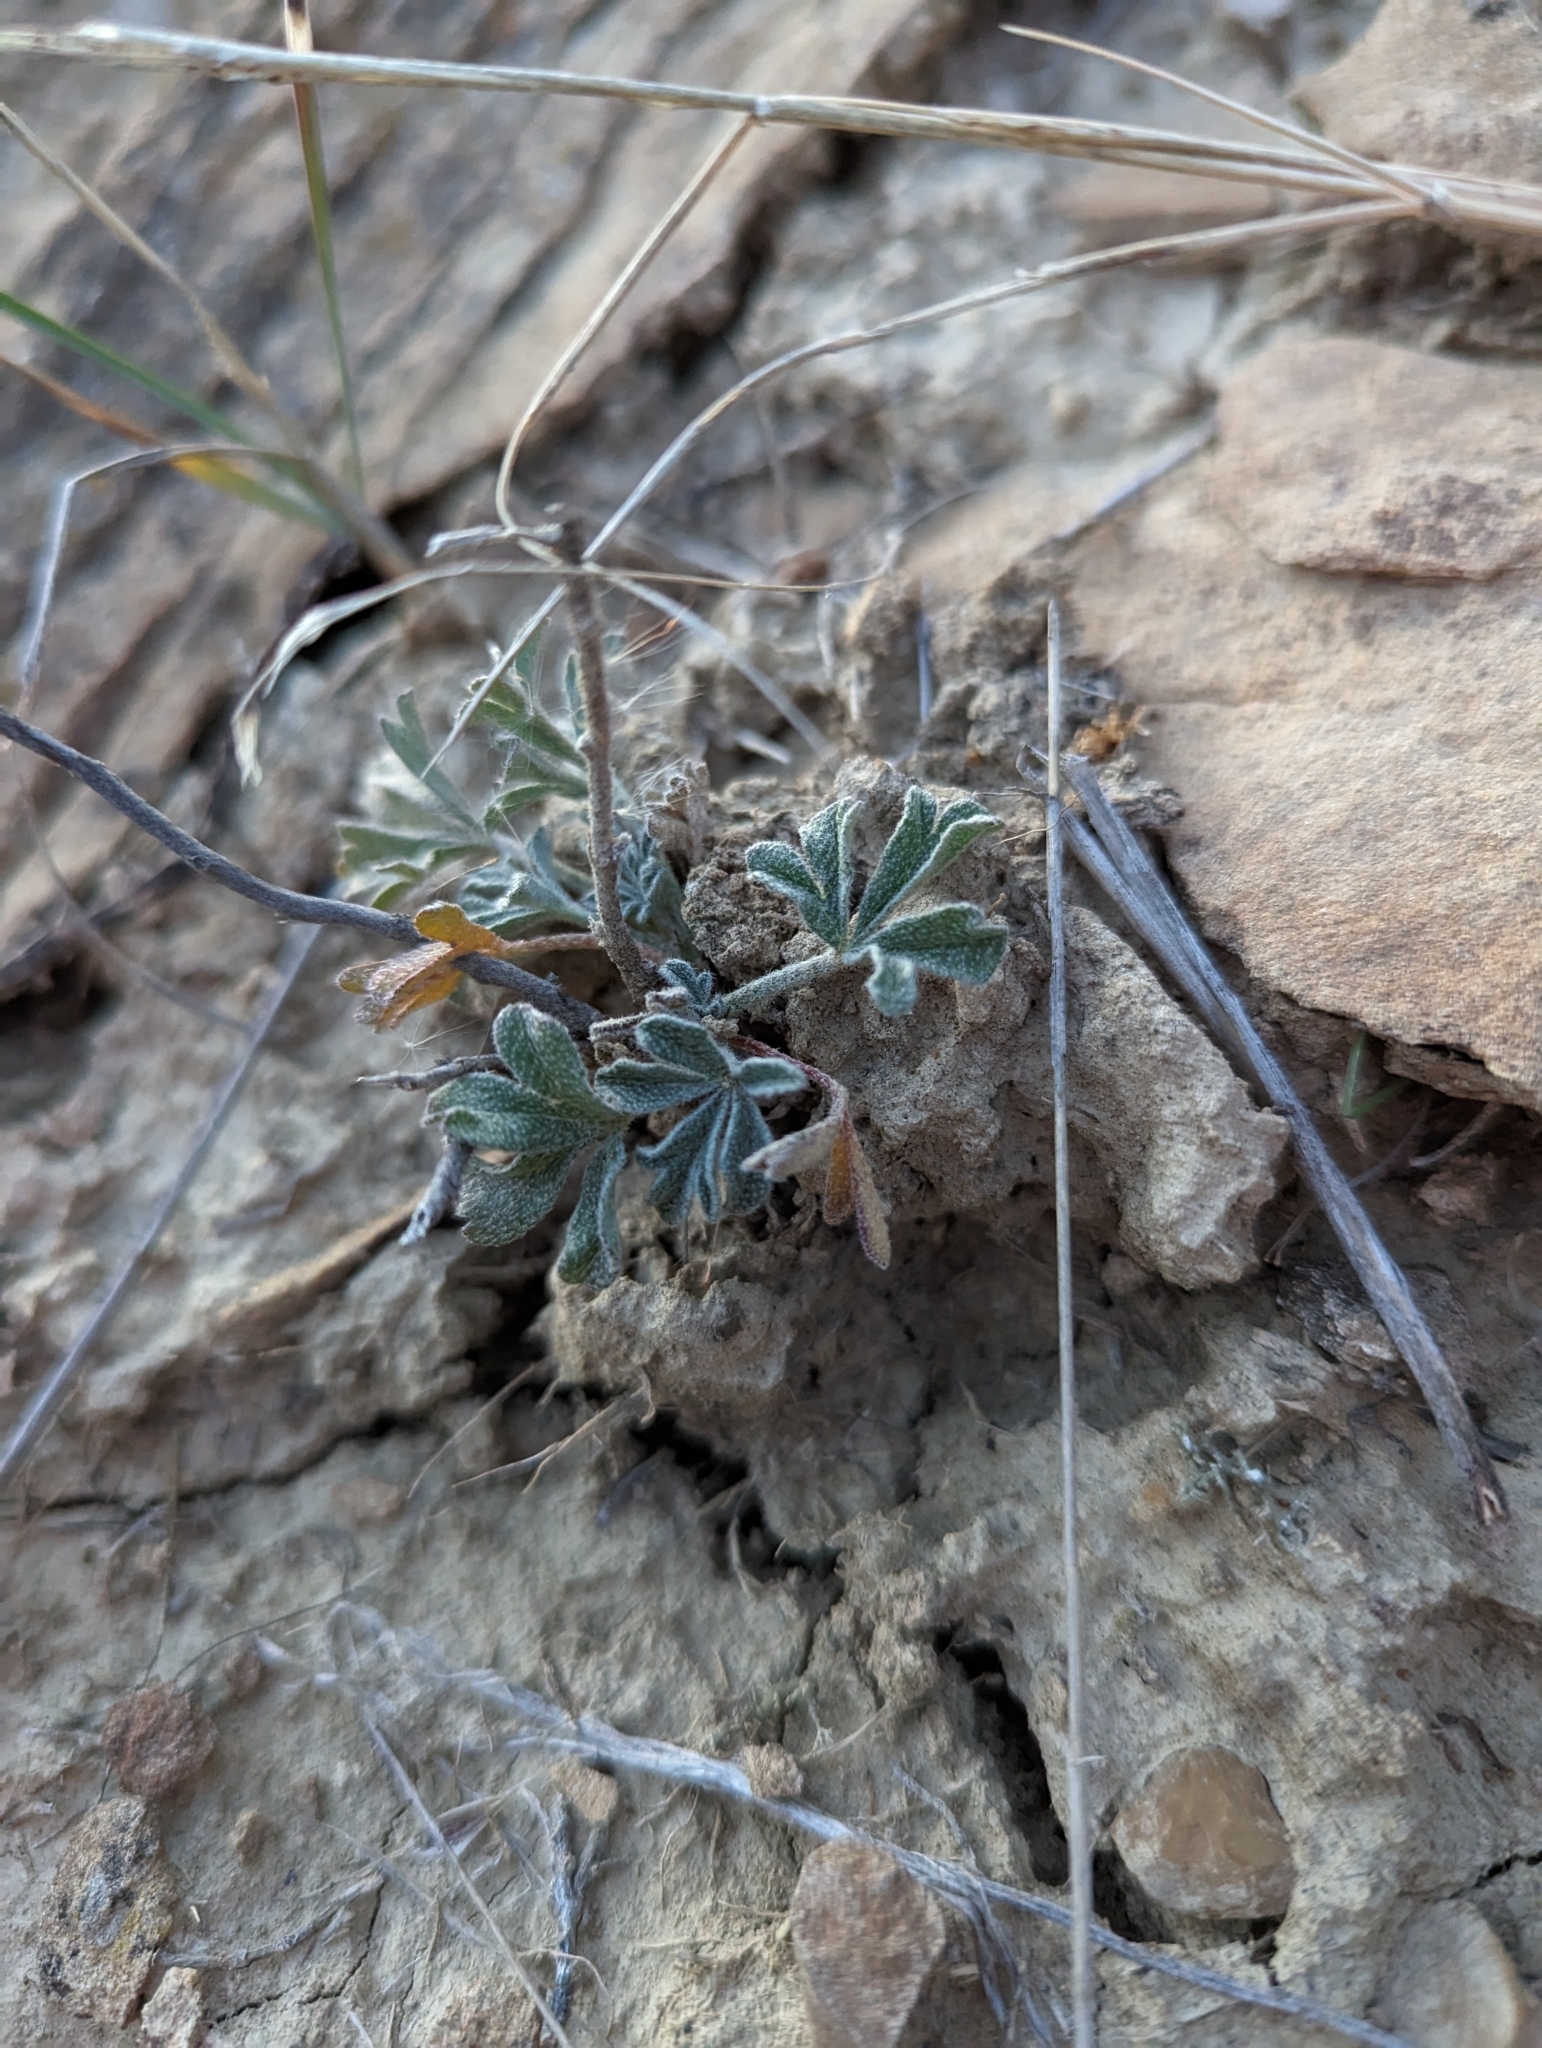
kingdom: Plantae
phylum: Tracheophyta
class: Magnoliopsida
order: Malvales
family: Malvaceae
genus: Sphaeralcea
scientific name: Sphaeralcea coccinea
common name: Moss-rose
